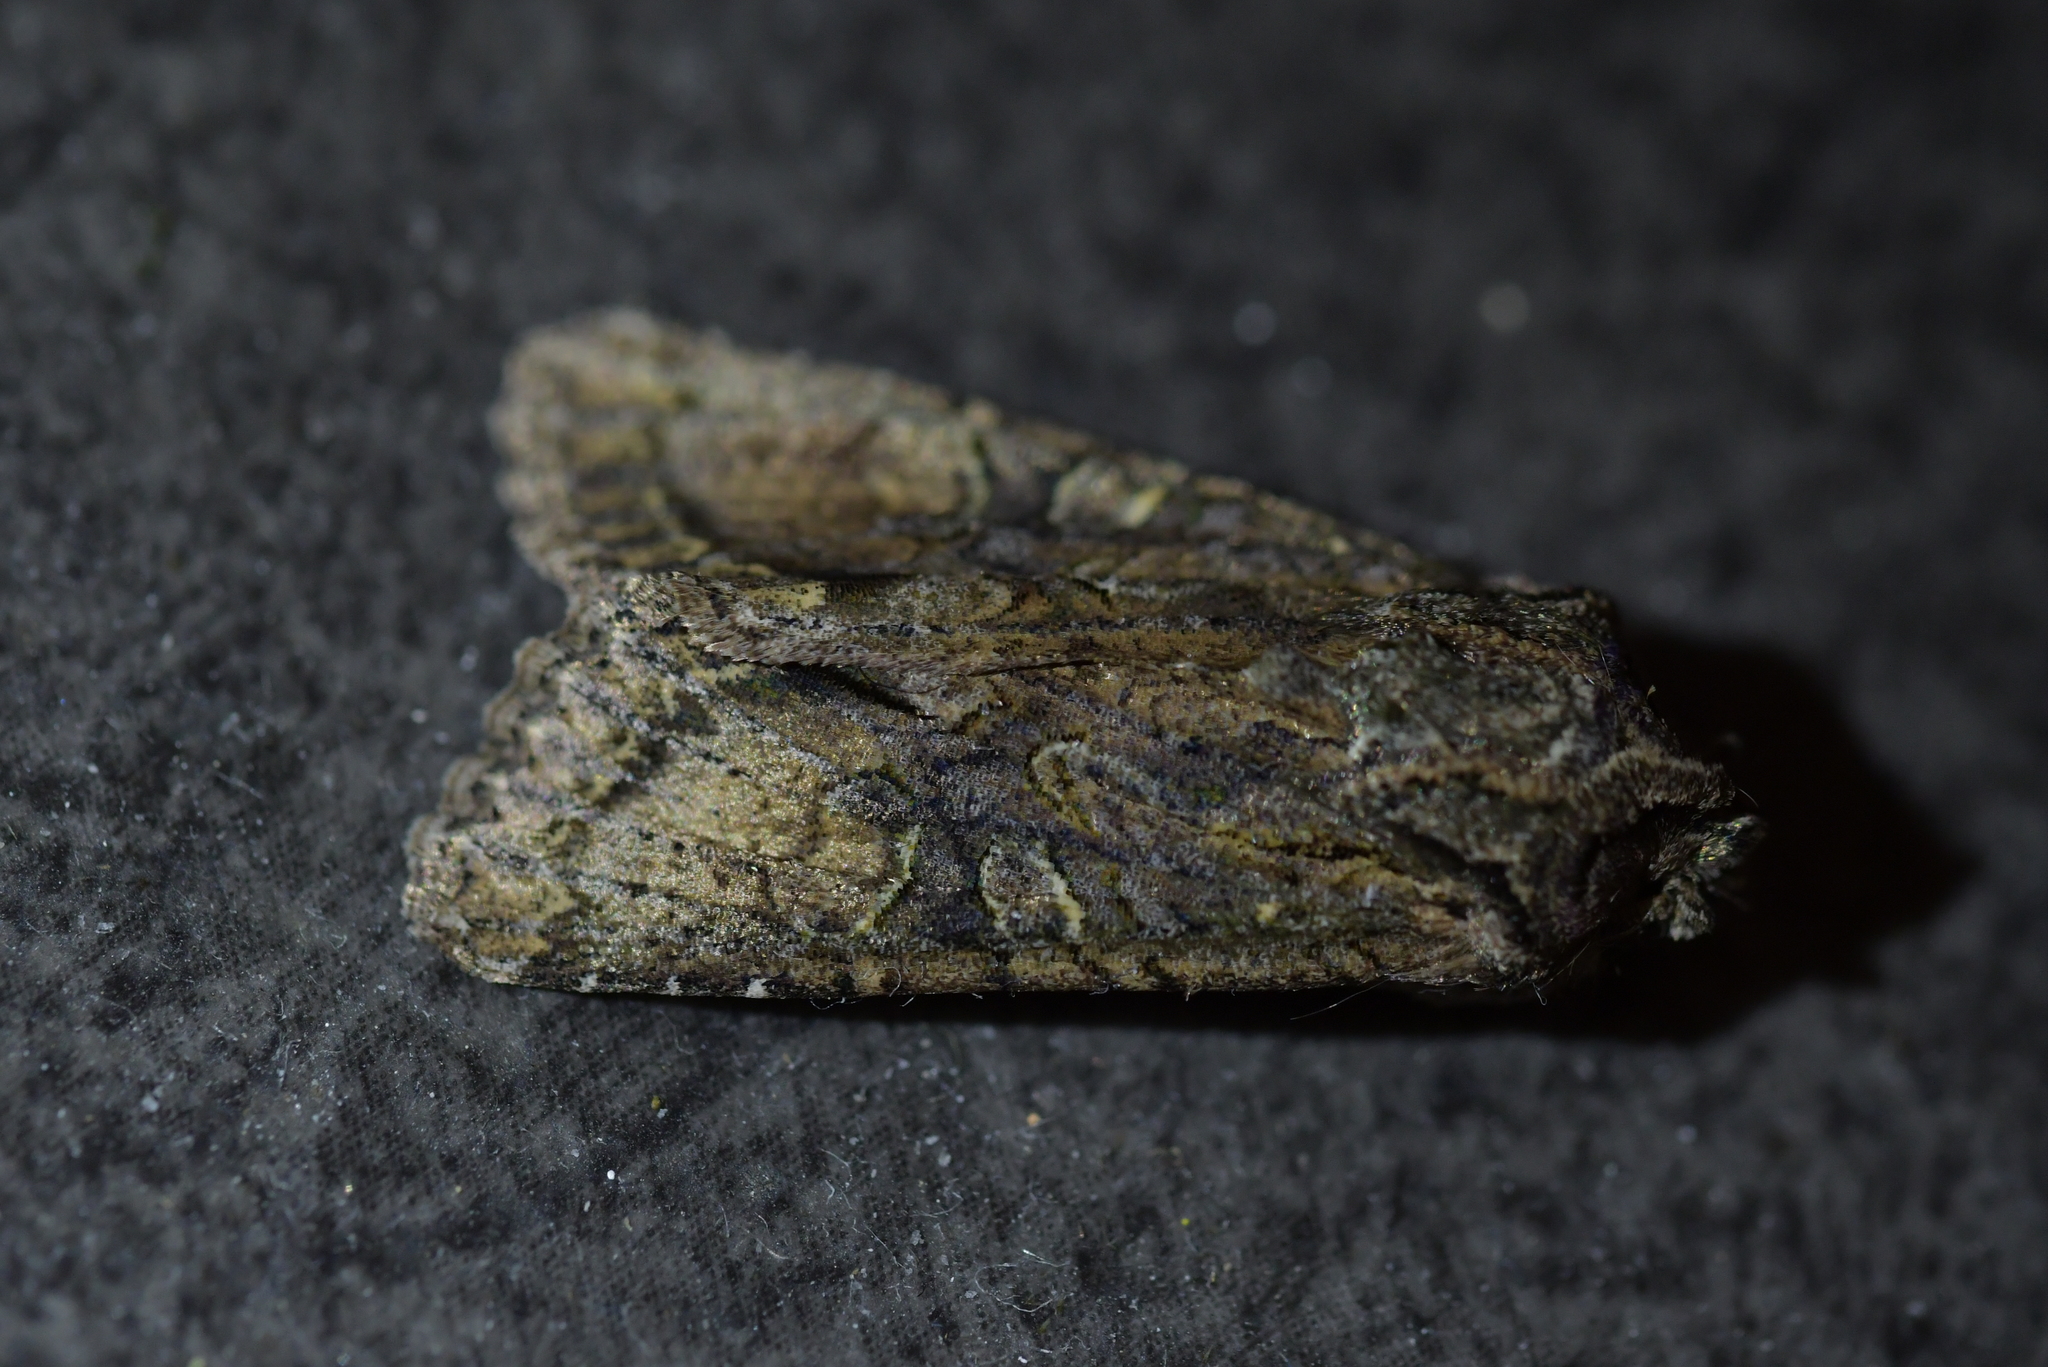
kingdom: Animalia
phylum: Arthropoda
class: Insecta
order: Lepidoptera
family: Noctuidae
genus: Ichneutica
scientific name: Ichneutica mutans
